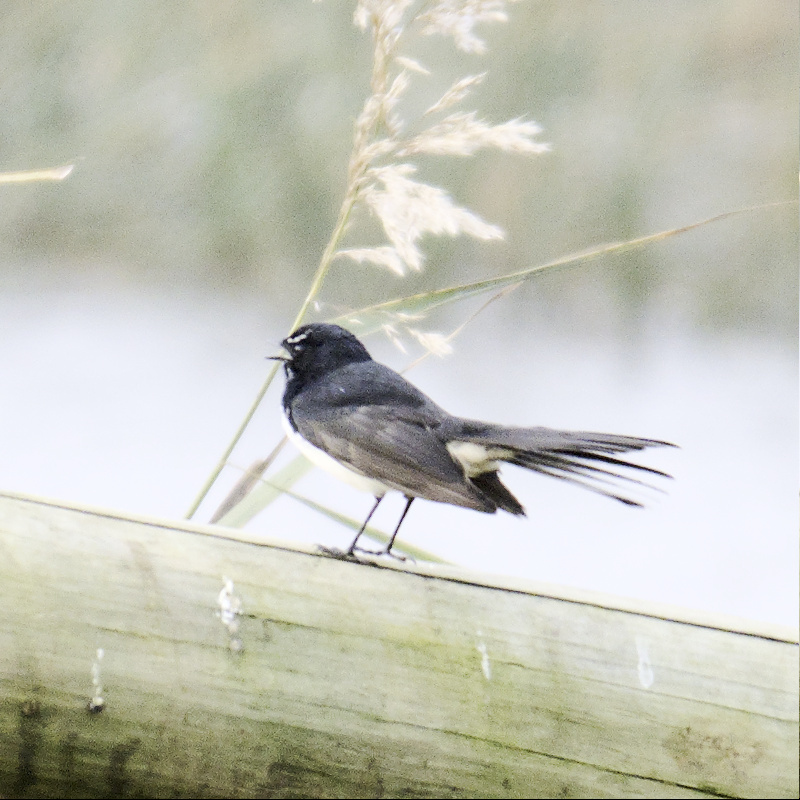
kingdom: Animalia
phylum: Chordata
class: Aves
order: Passeriformes
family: Rhipiduridae
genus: Rhipidura
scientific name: Rhipidura leucophrys
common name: Willie wagtail
